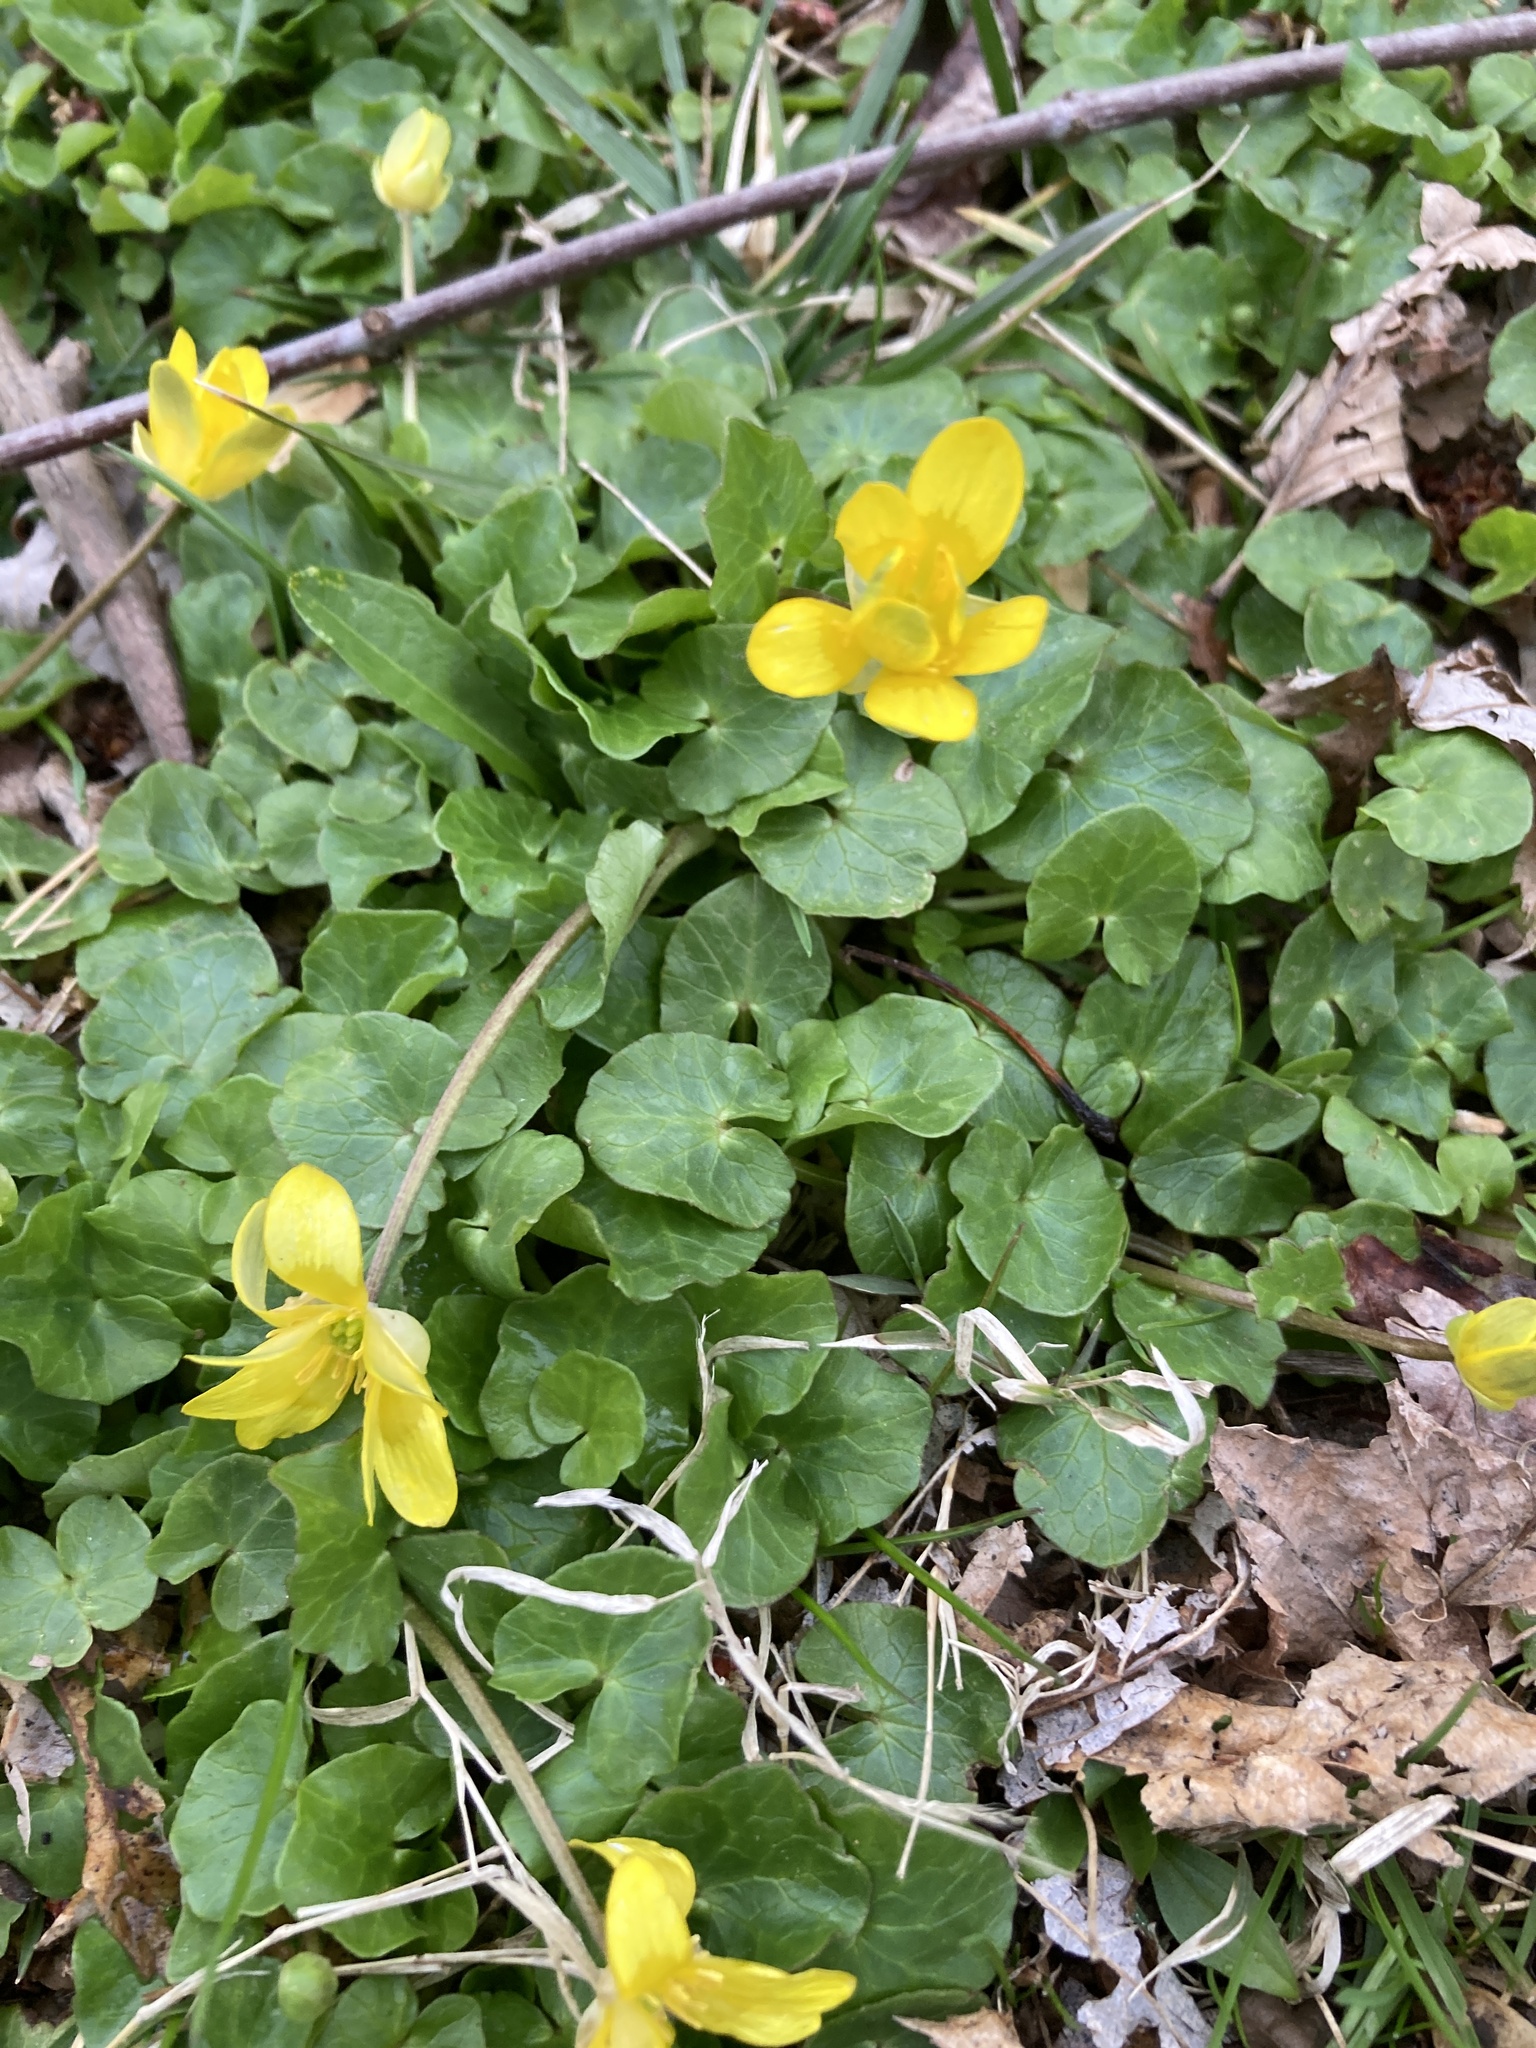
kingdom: Plantae
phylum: Tracheophyta
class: Magnoliopsida
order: Ranunculales
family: Ranunculaceae
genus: Ficaria
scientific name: Ficaria verna
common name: Lesser celandine
